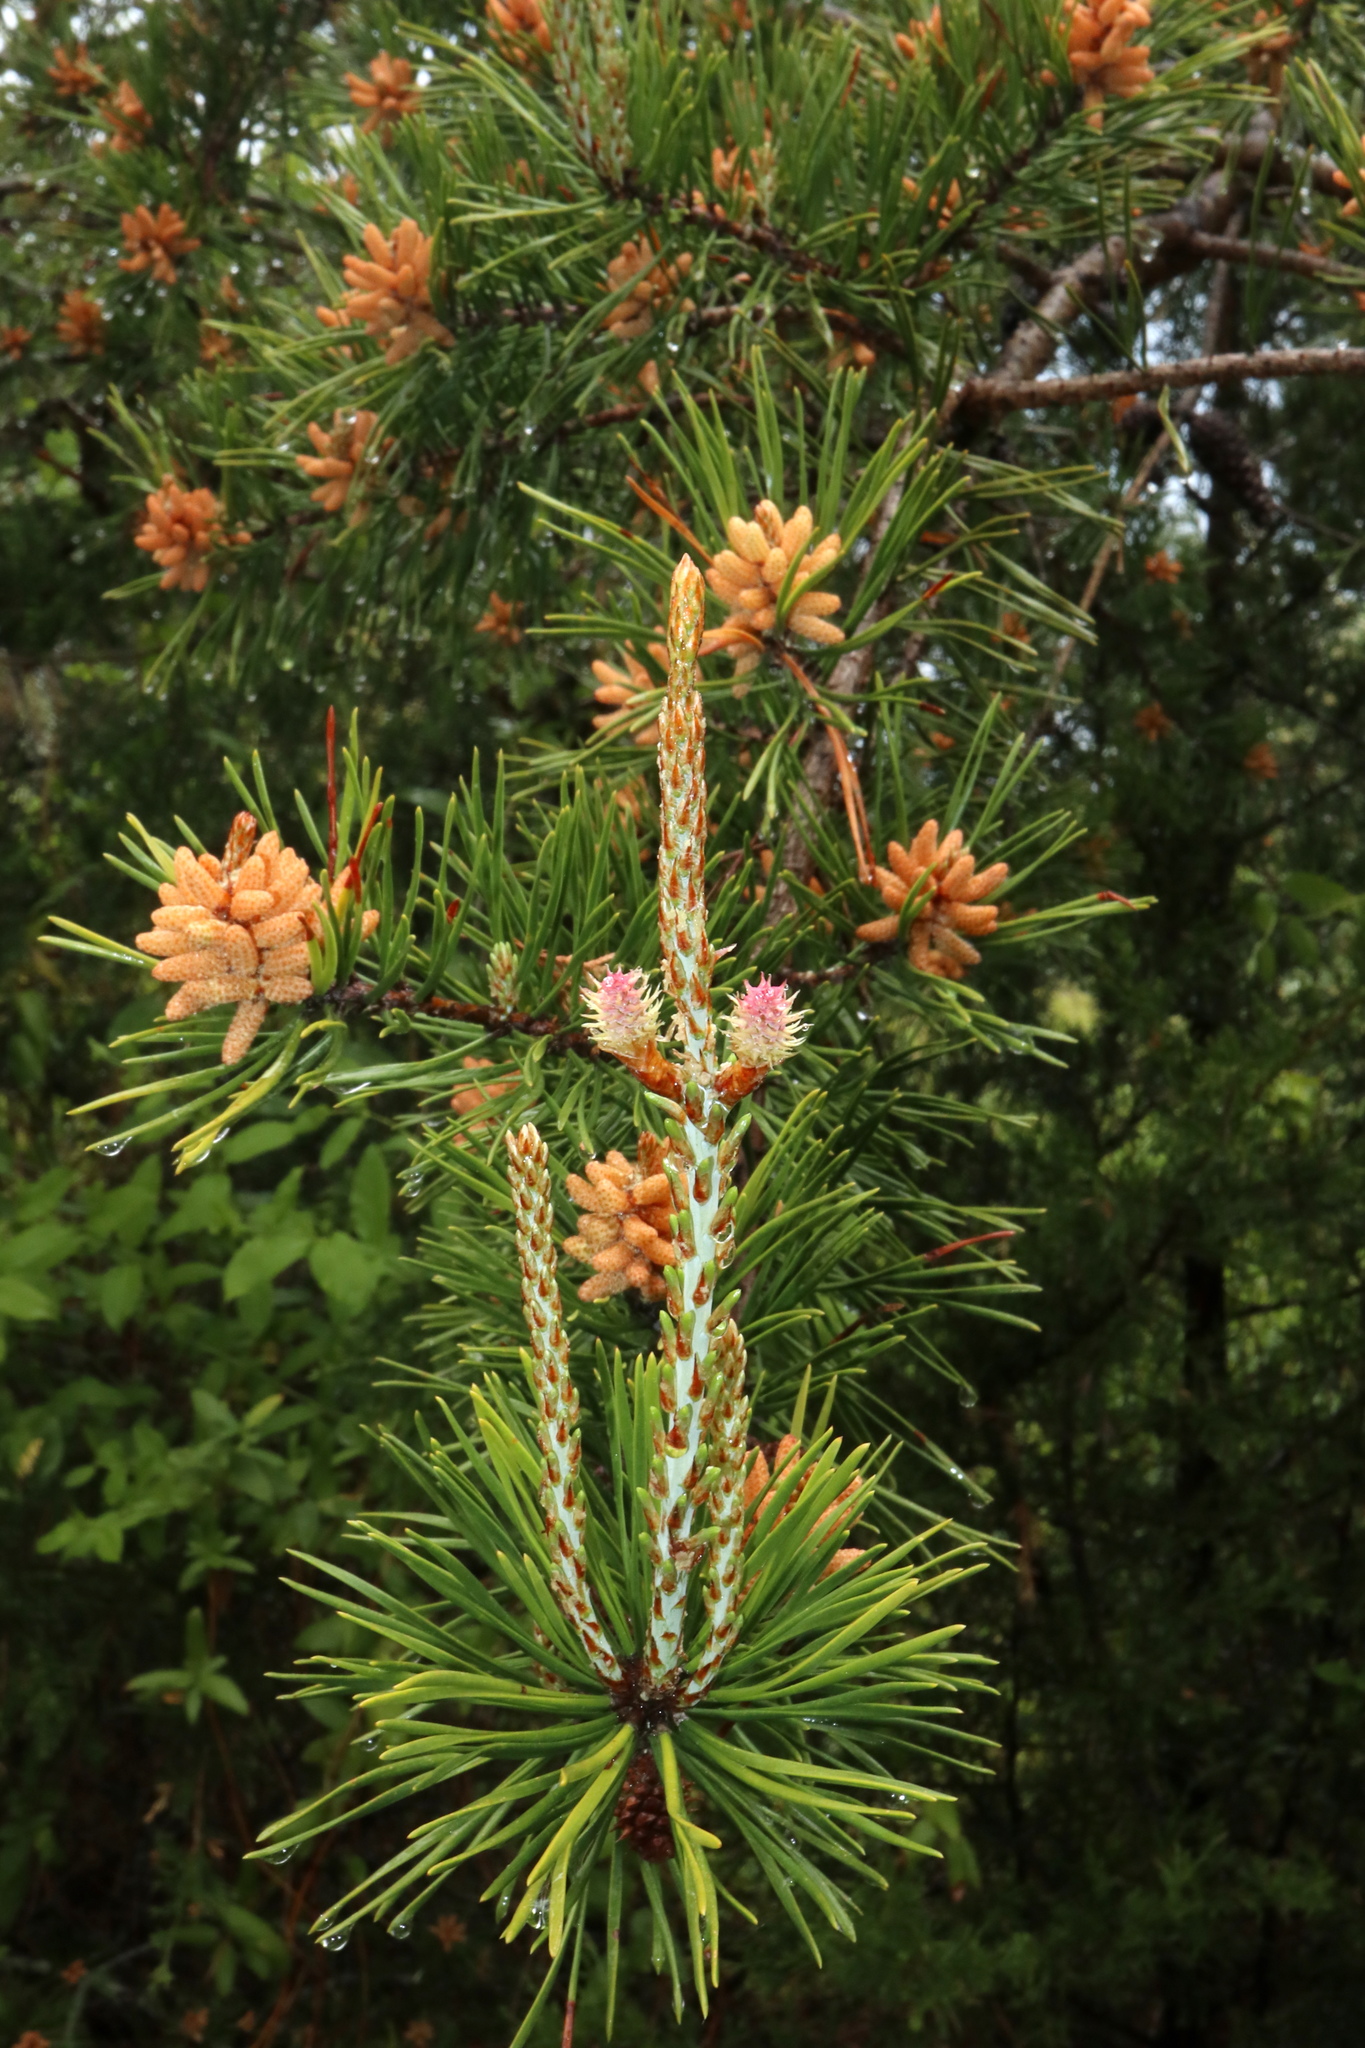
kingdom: Plantae
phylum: Tracheophyta
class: Pinopsida
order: Pinales
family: Pinaceae
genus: Pinus
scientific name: Pinus virginiana
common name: Scrub pine
